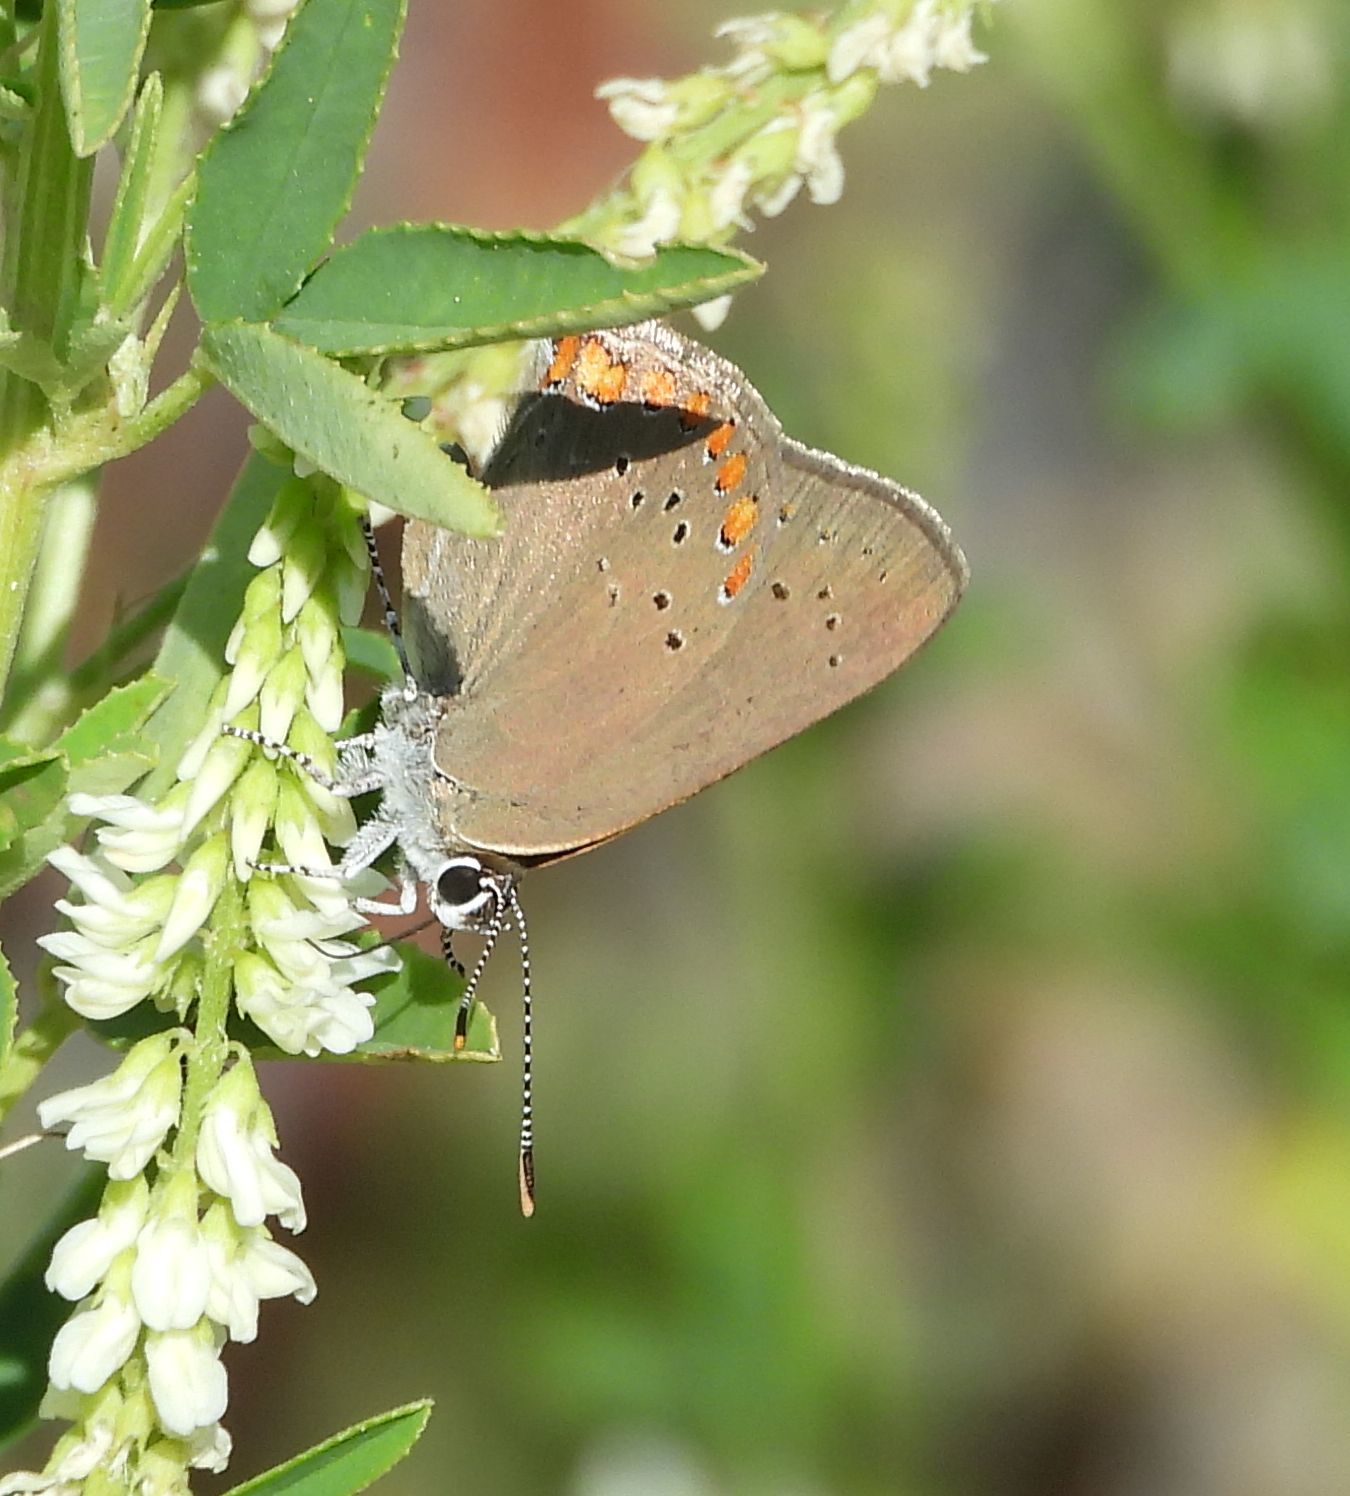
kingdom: Animalia
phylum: Arthropoda
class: Insecta
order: Lepidoptera
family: Lycaenidae
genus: Harkenclenus
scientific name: Harkenclenus titus
